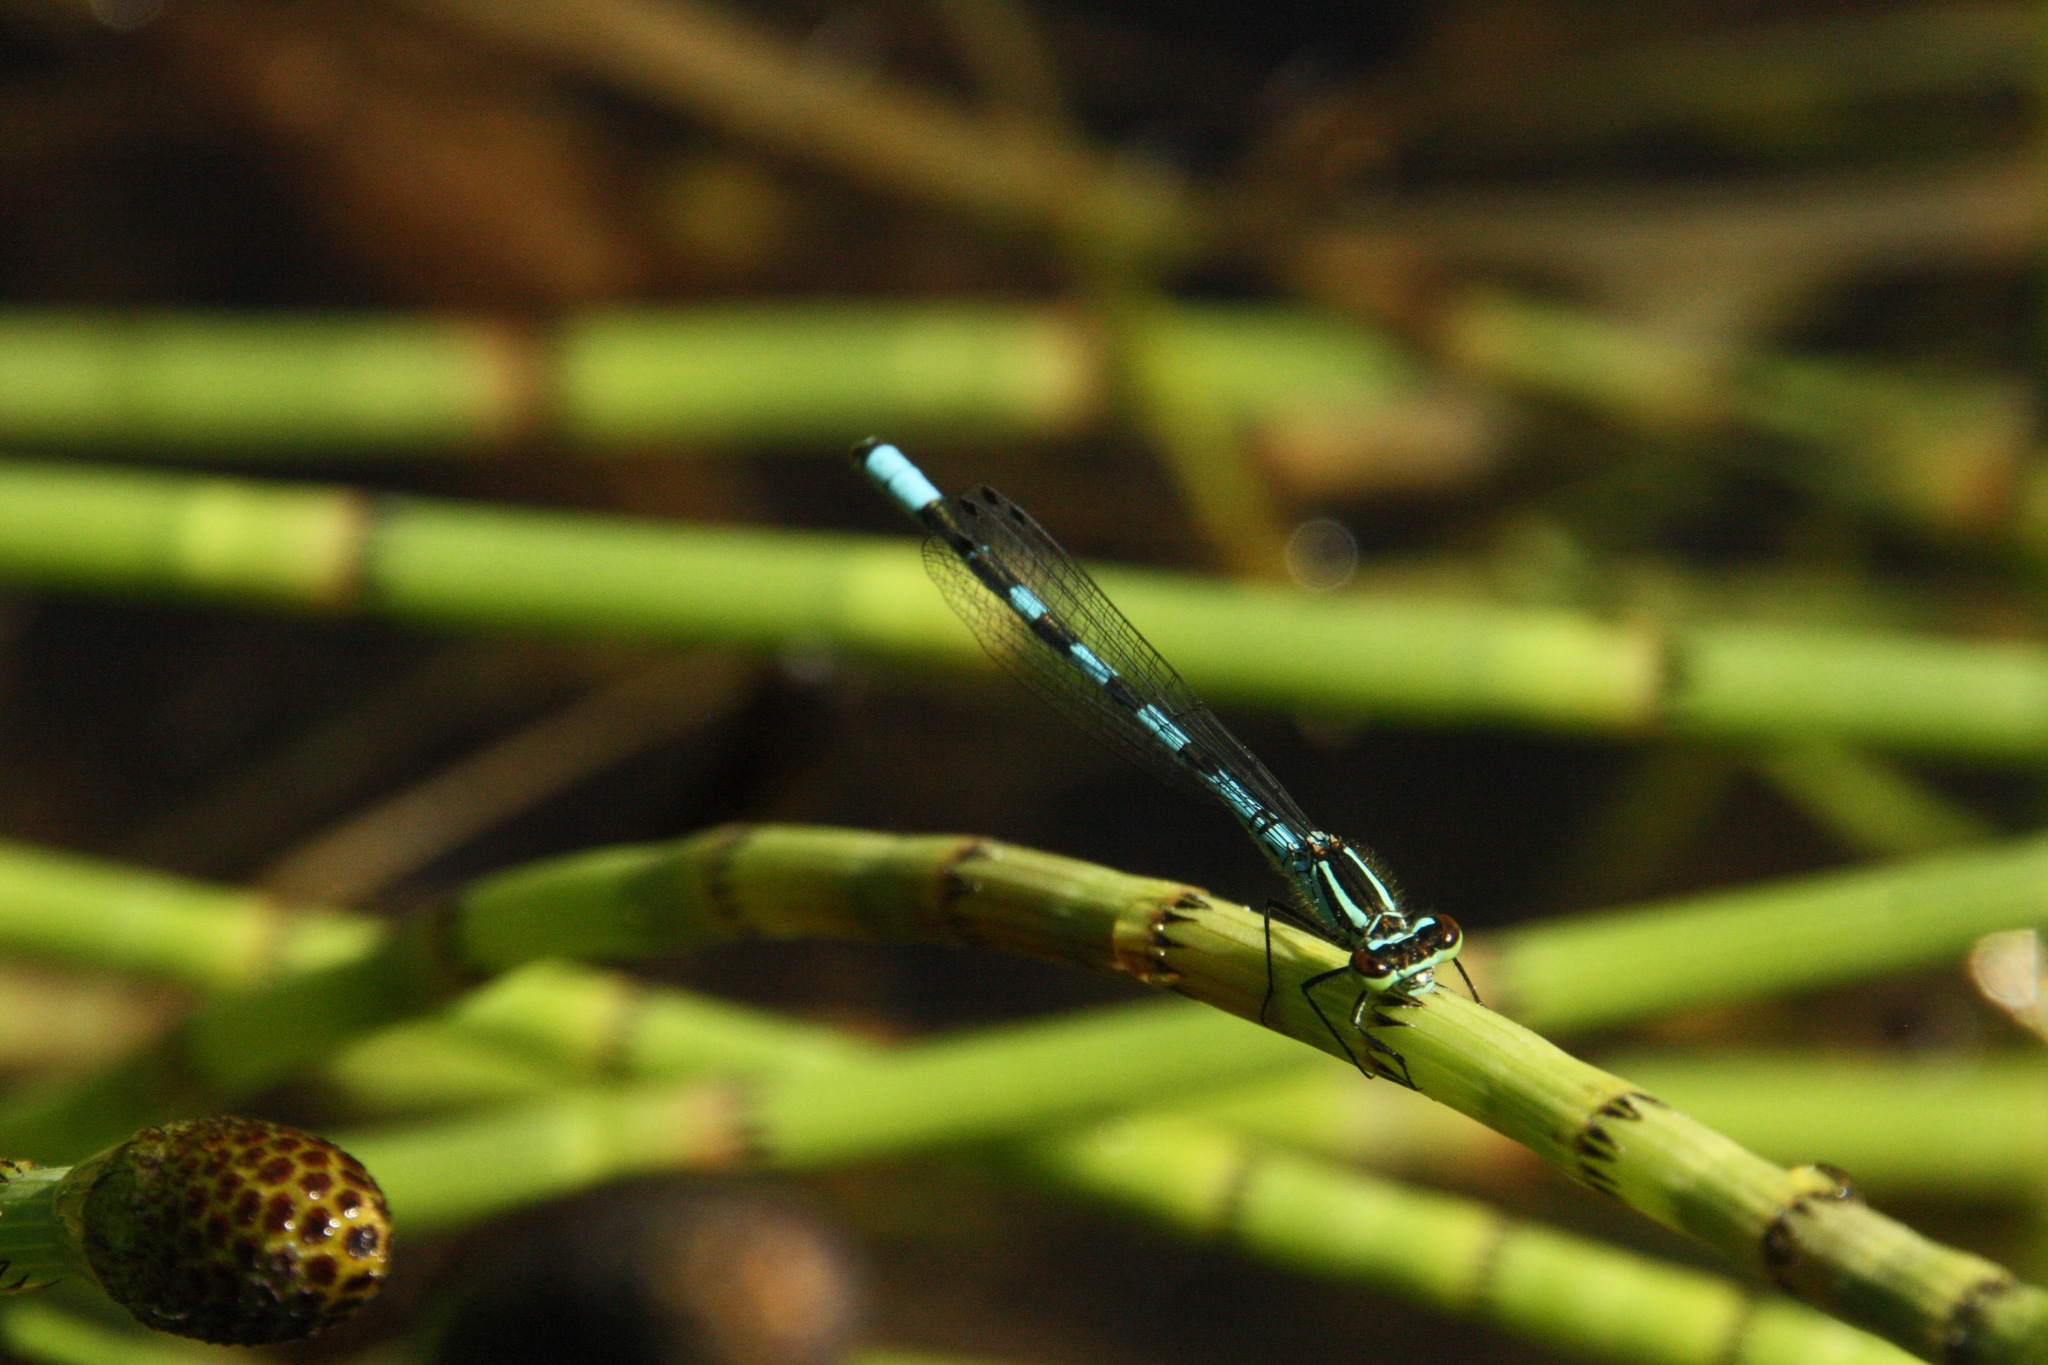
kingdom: Animalia
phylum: Arthropoda
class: Insecta
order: Odonata
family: Coenagrionidae
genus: Coenagrion
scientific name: Coenagrion hastulatum
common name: Spearhead bluet
